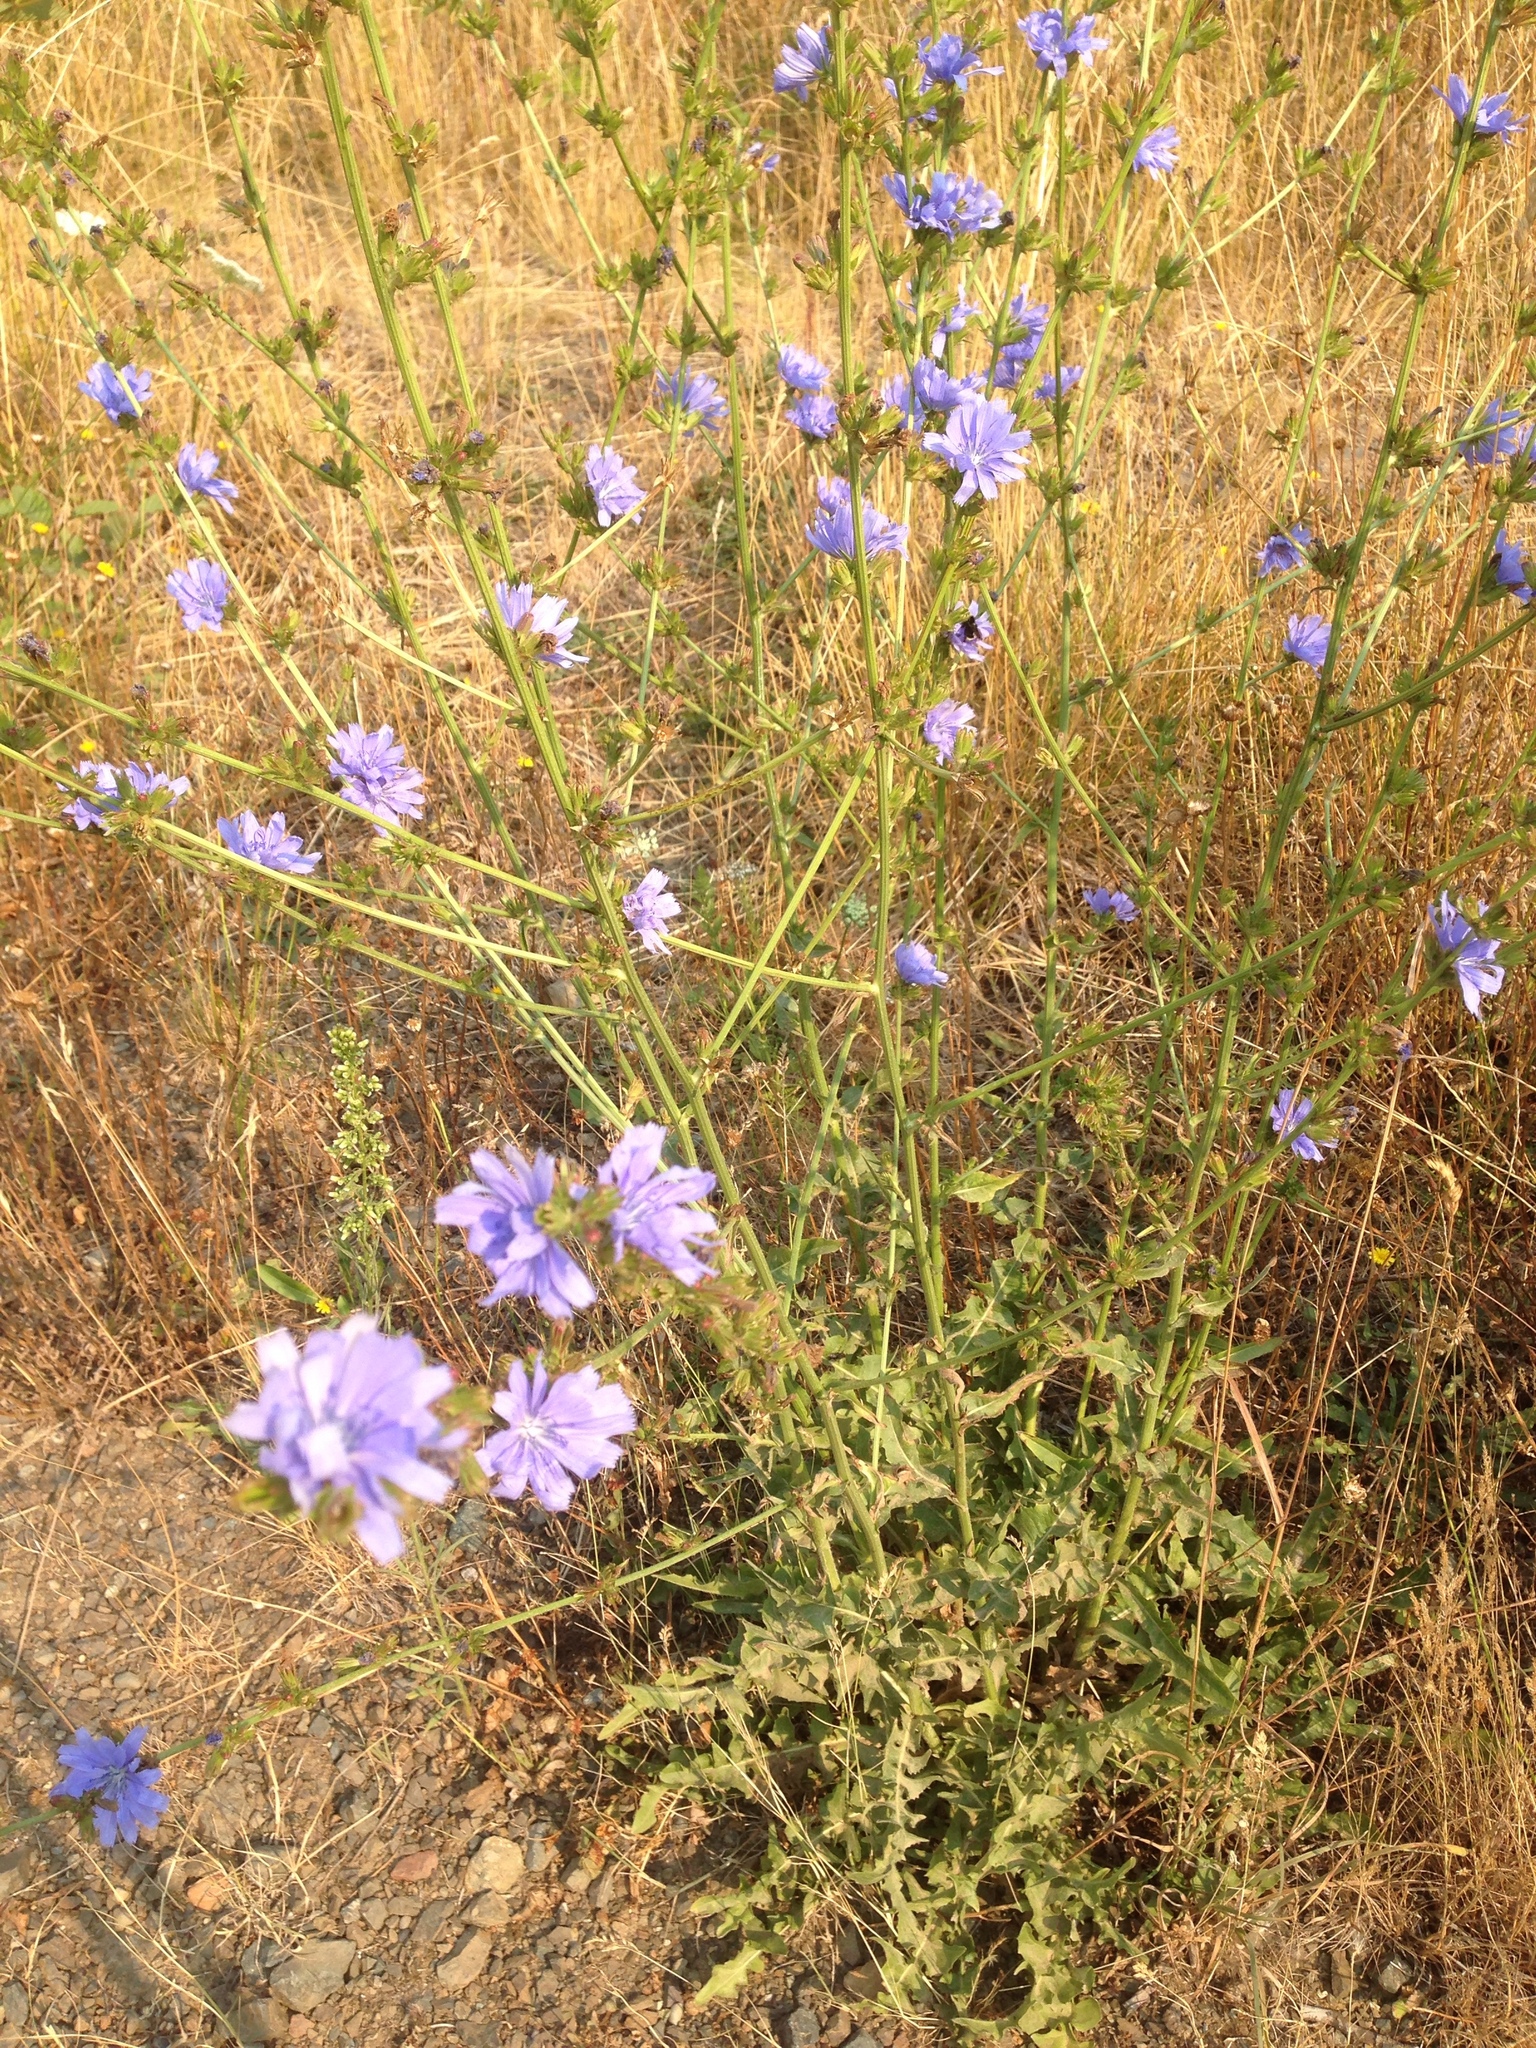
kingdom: Plantae
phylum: Tracheophyta
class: Magnoliopsida
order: Asterales
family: Asteraceae
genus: Cichorium
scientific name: Cichorium intybus
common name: Chicory
